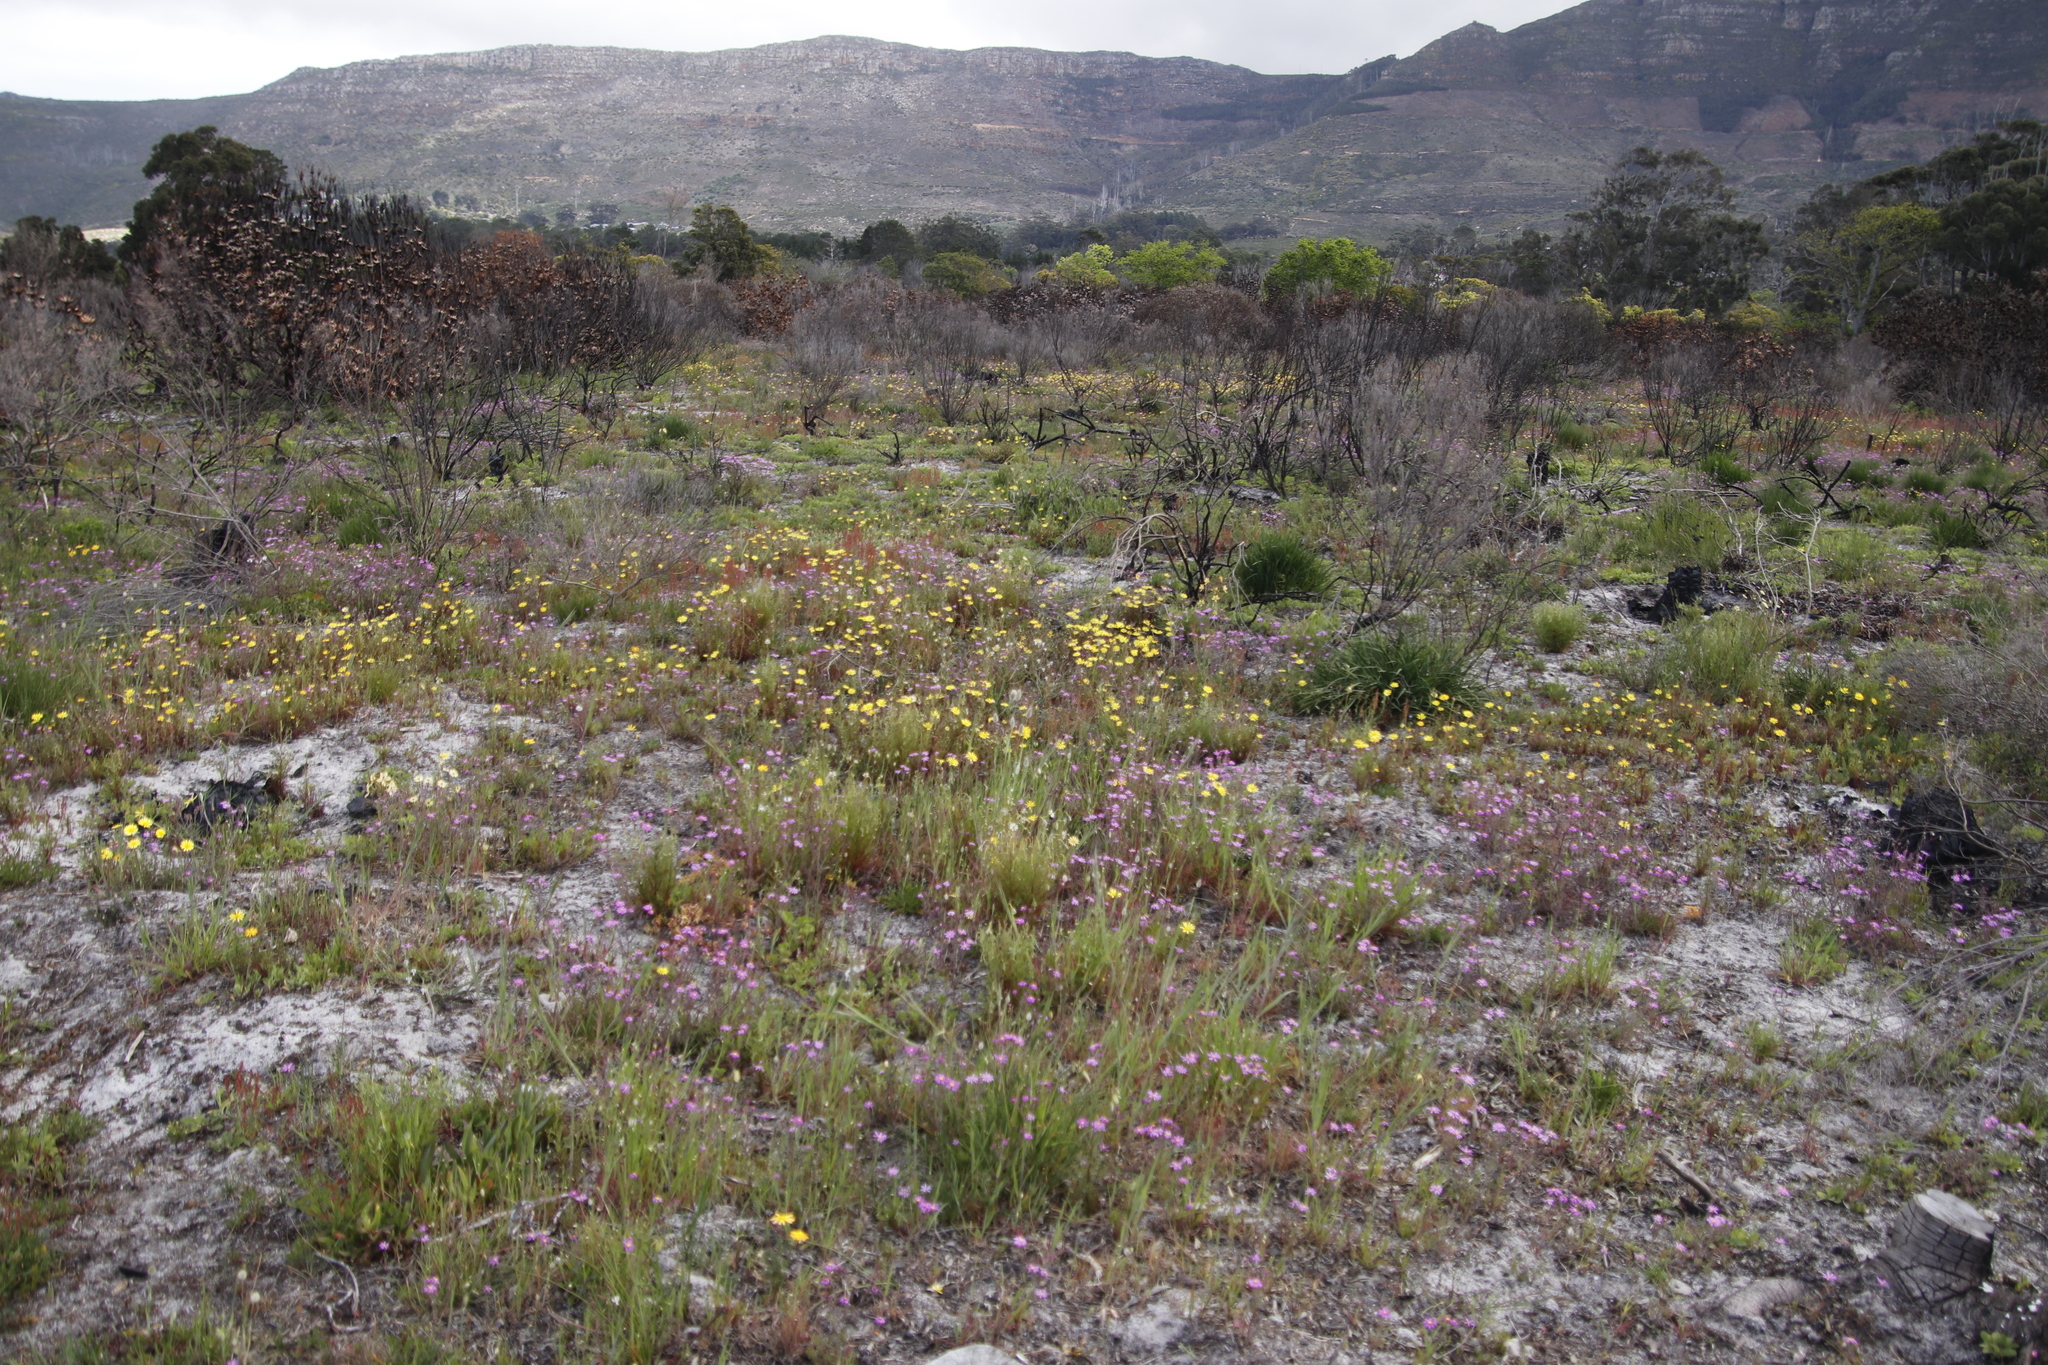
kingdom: Plantae
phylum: Tracheophyta
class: Magnoliopsida
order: Asterales
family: Asteraceae
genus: Ursinia
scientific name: Ursinia anthemoides
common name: Ursinia
